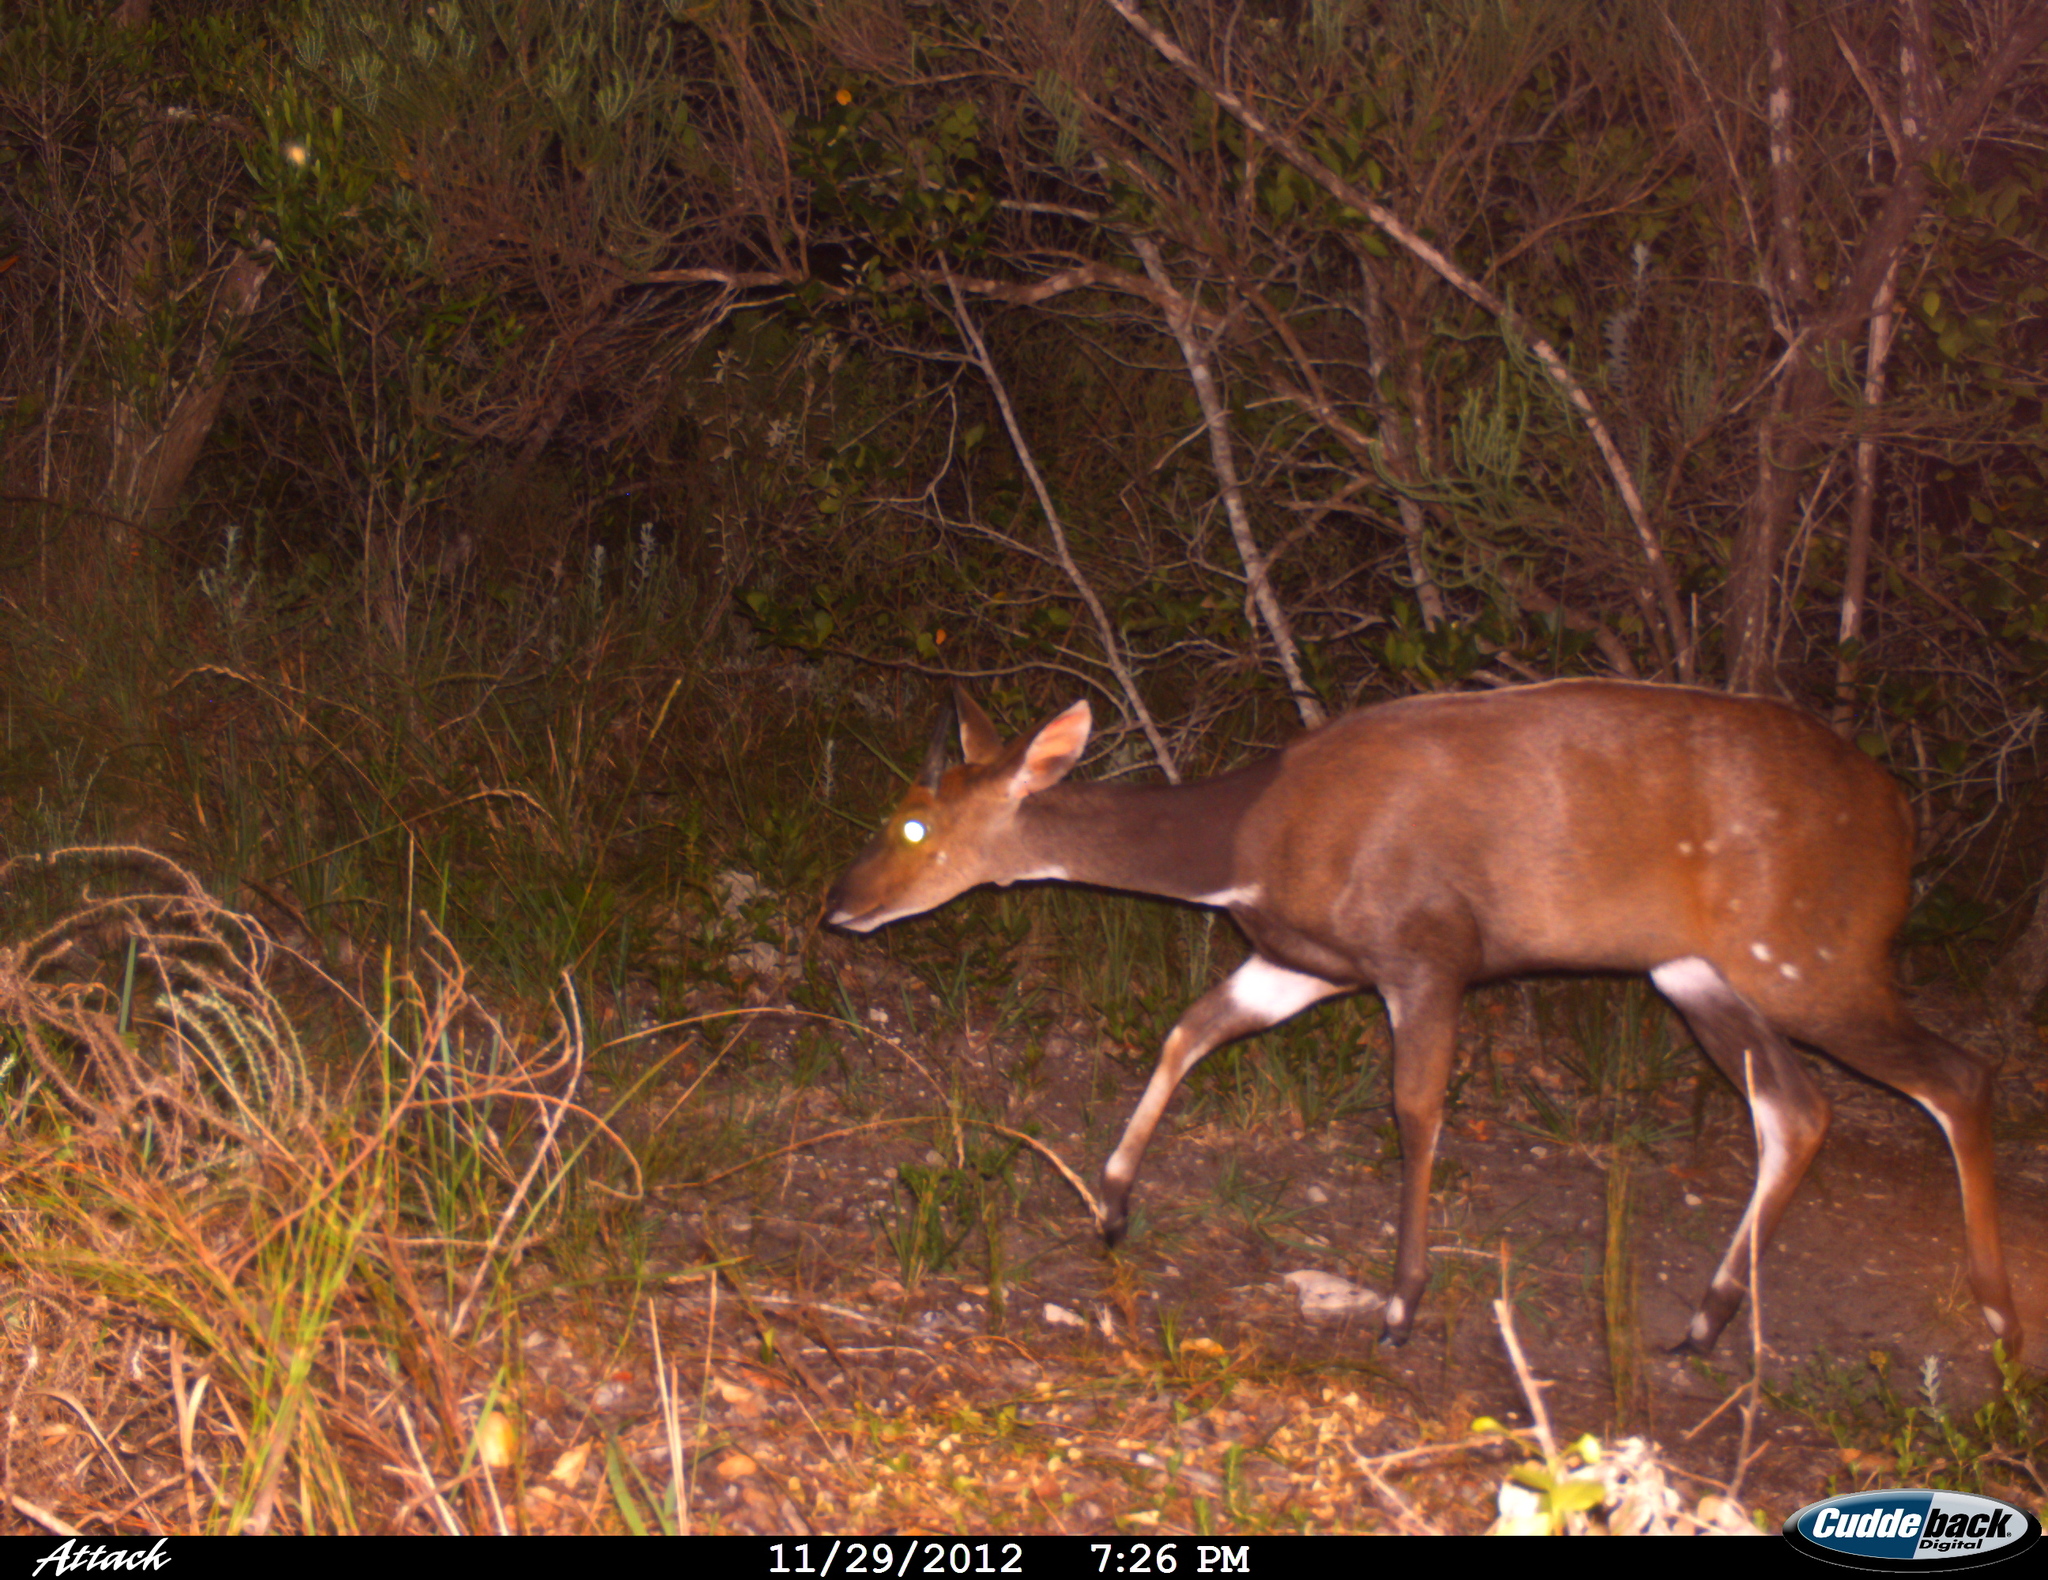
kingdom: Animalia
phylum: Chordata
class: Mammalia
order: Artiodactyla
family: Bovidae
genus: Tragelaphus
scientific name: Tragelaphus scriptus
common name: Bushbuck
